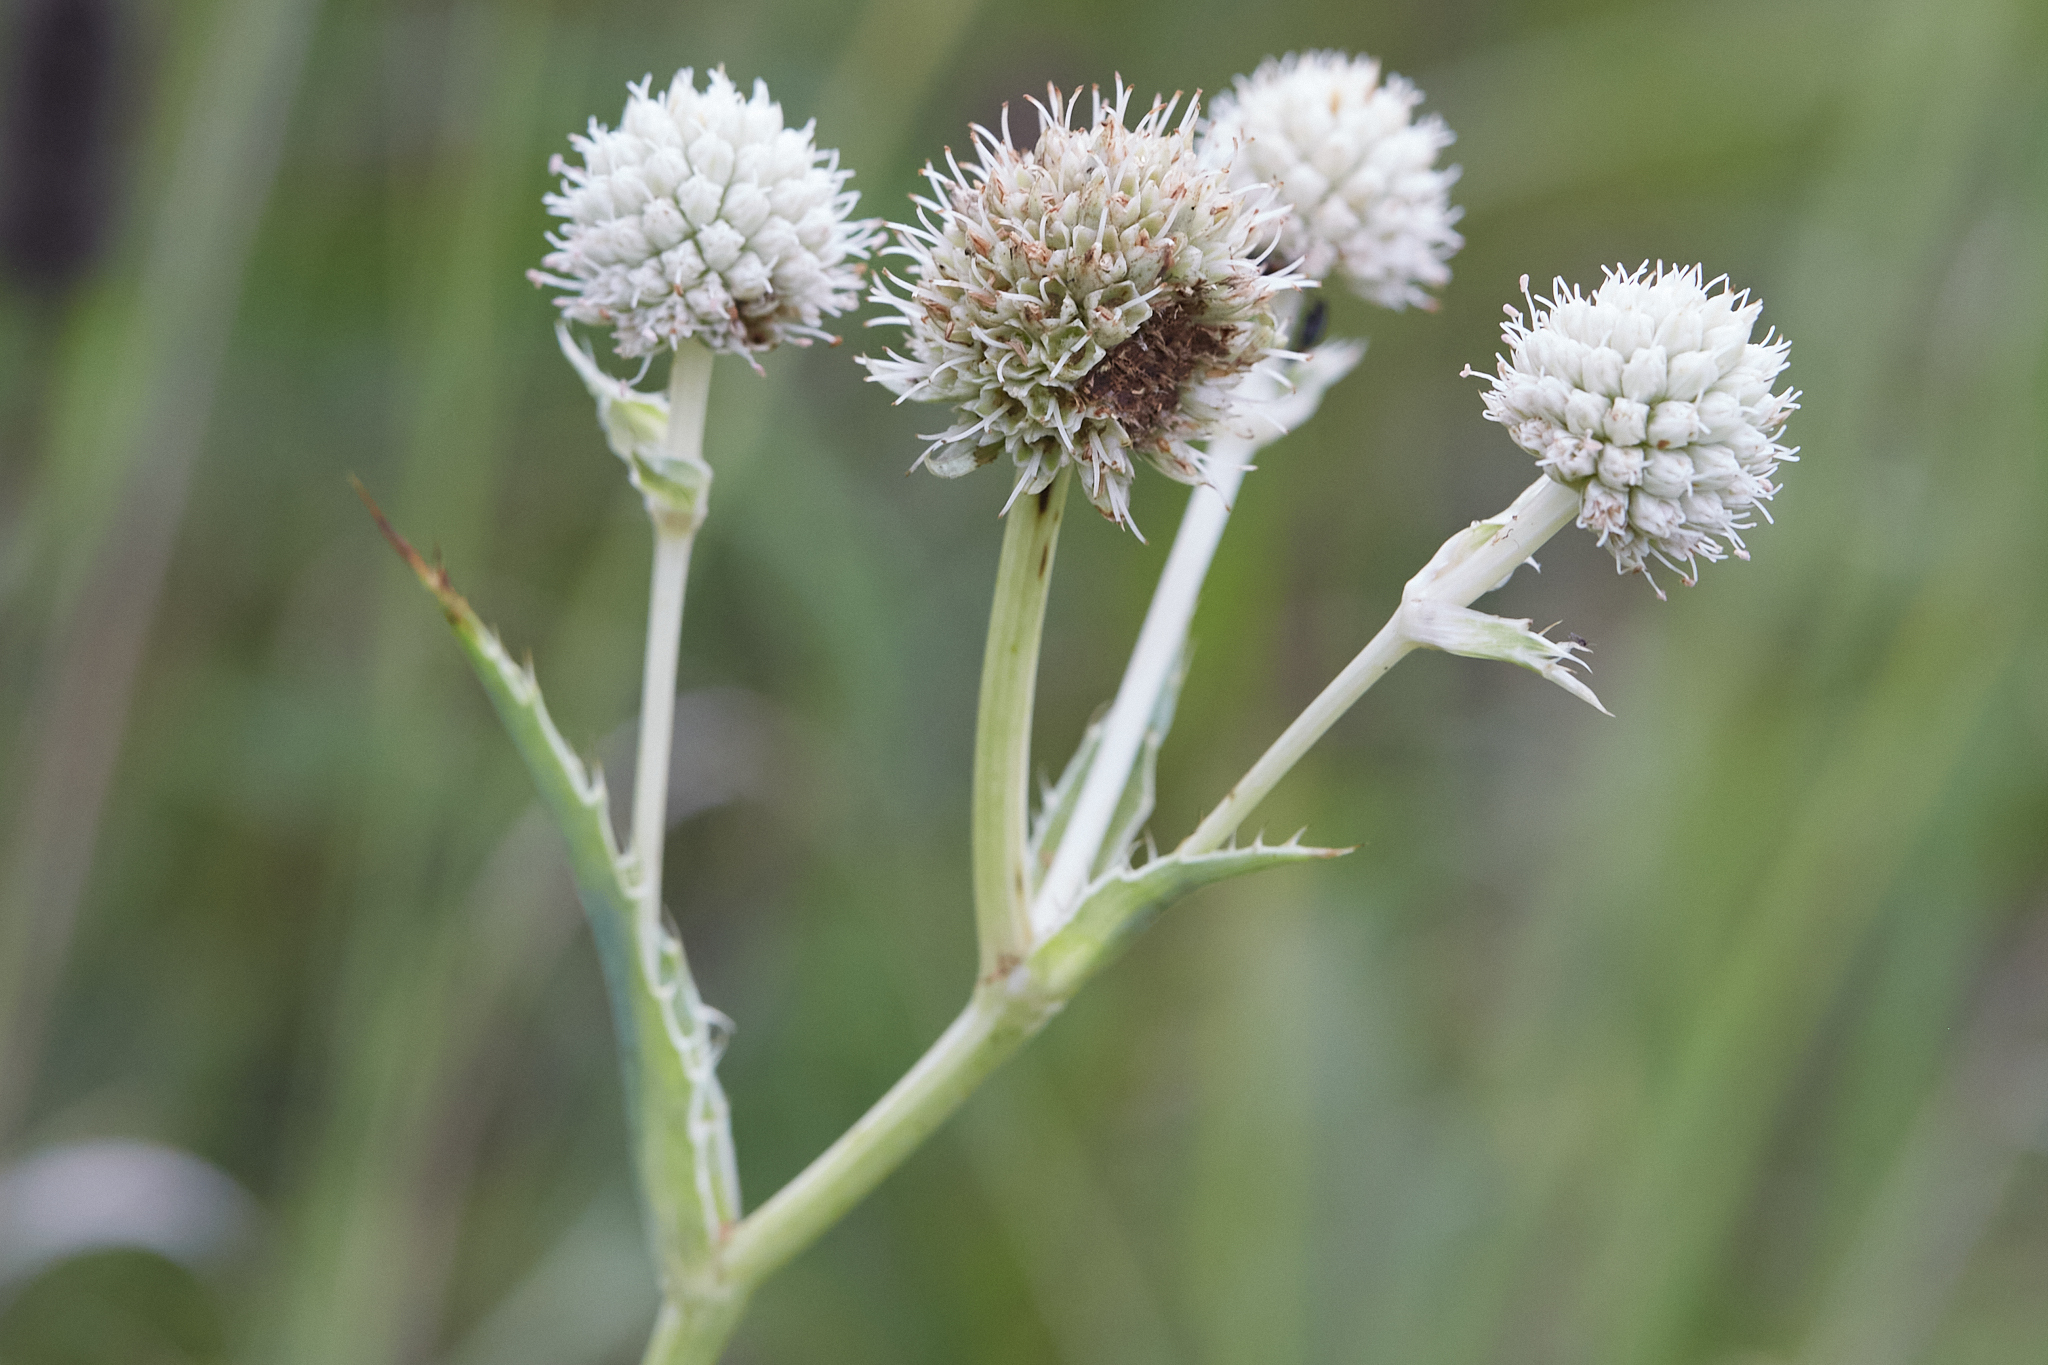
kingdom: Plantae
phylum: Tracheophyta
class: Magnoliopsida
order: Apiales
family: Apiaceae
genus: Eryngium
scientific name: Eryngium yuccifolium
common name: Button eryngo
